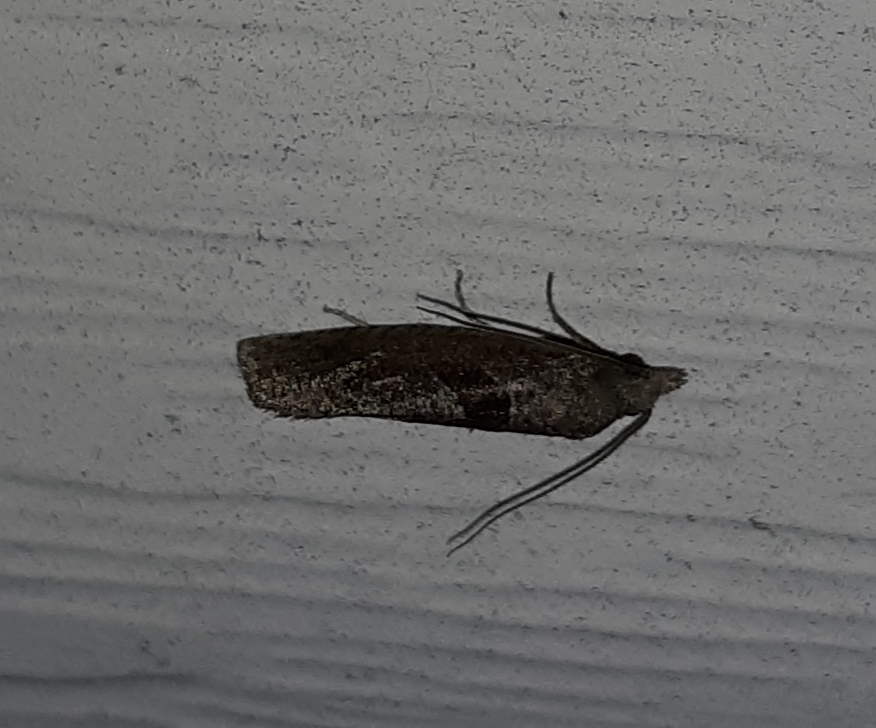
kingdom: Animalia
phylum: Arthropoda
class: Insecta
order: Lepidoptera
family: Tortricidae
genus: Pelochrista
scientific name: Pelochrista similiana
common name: Similar eucosma
